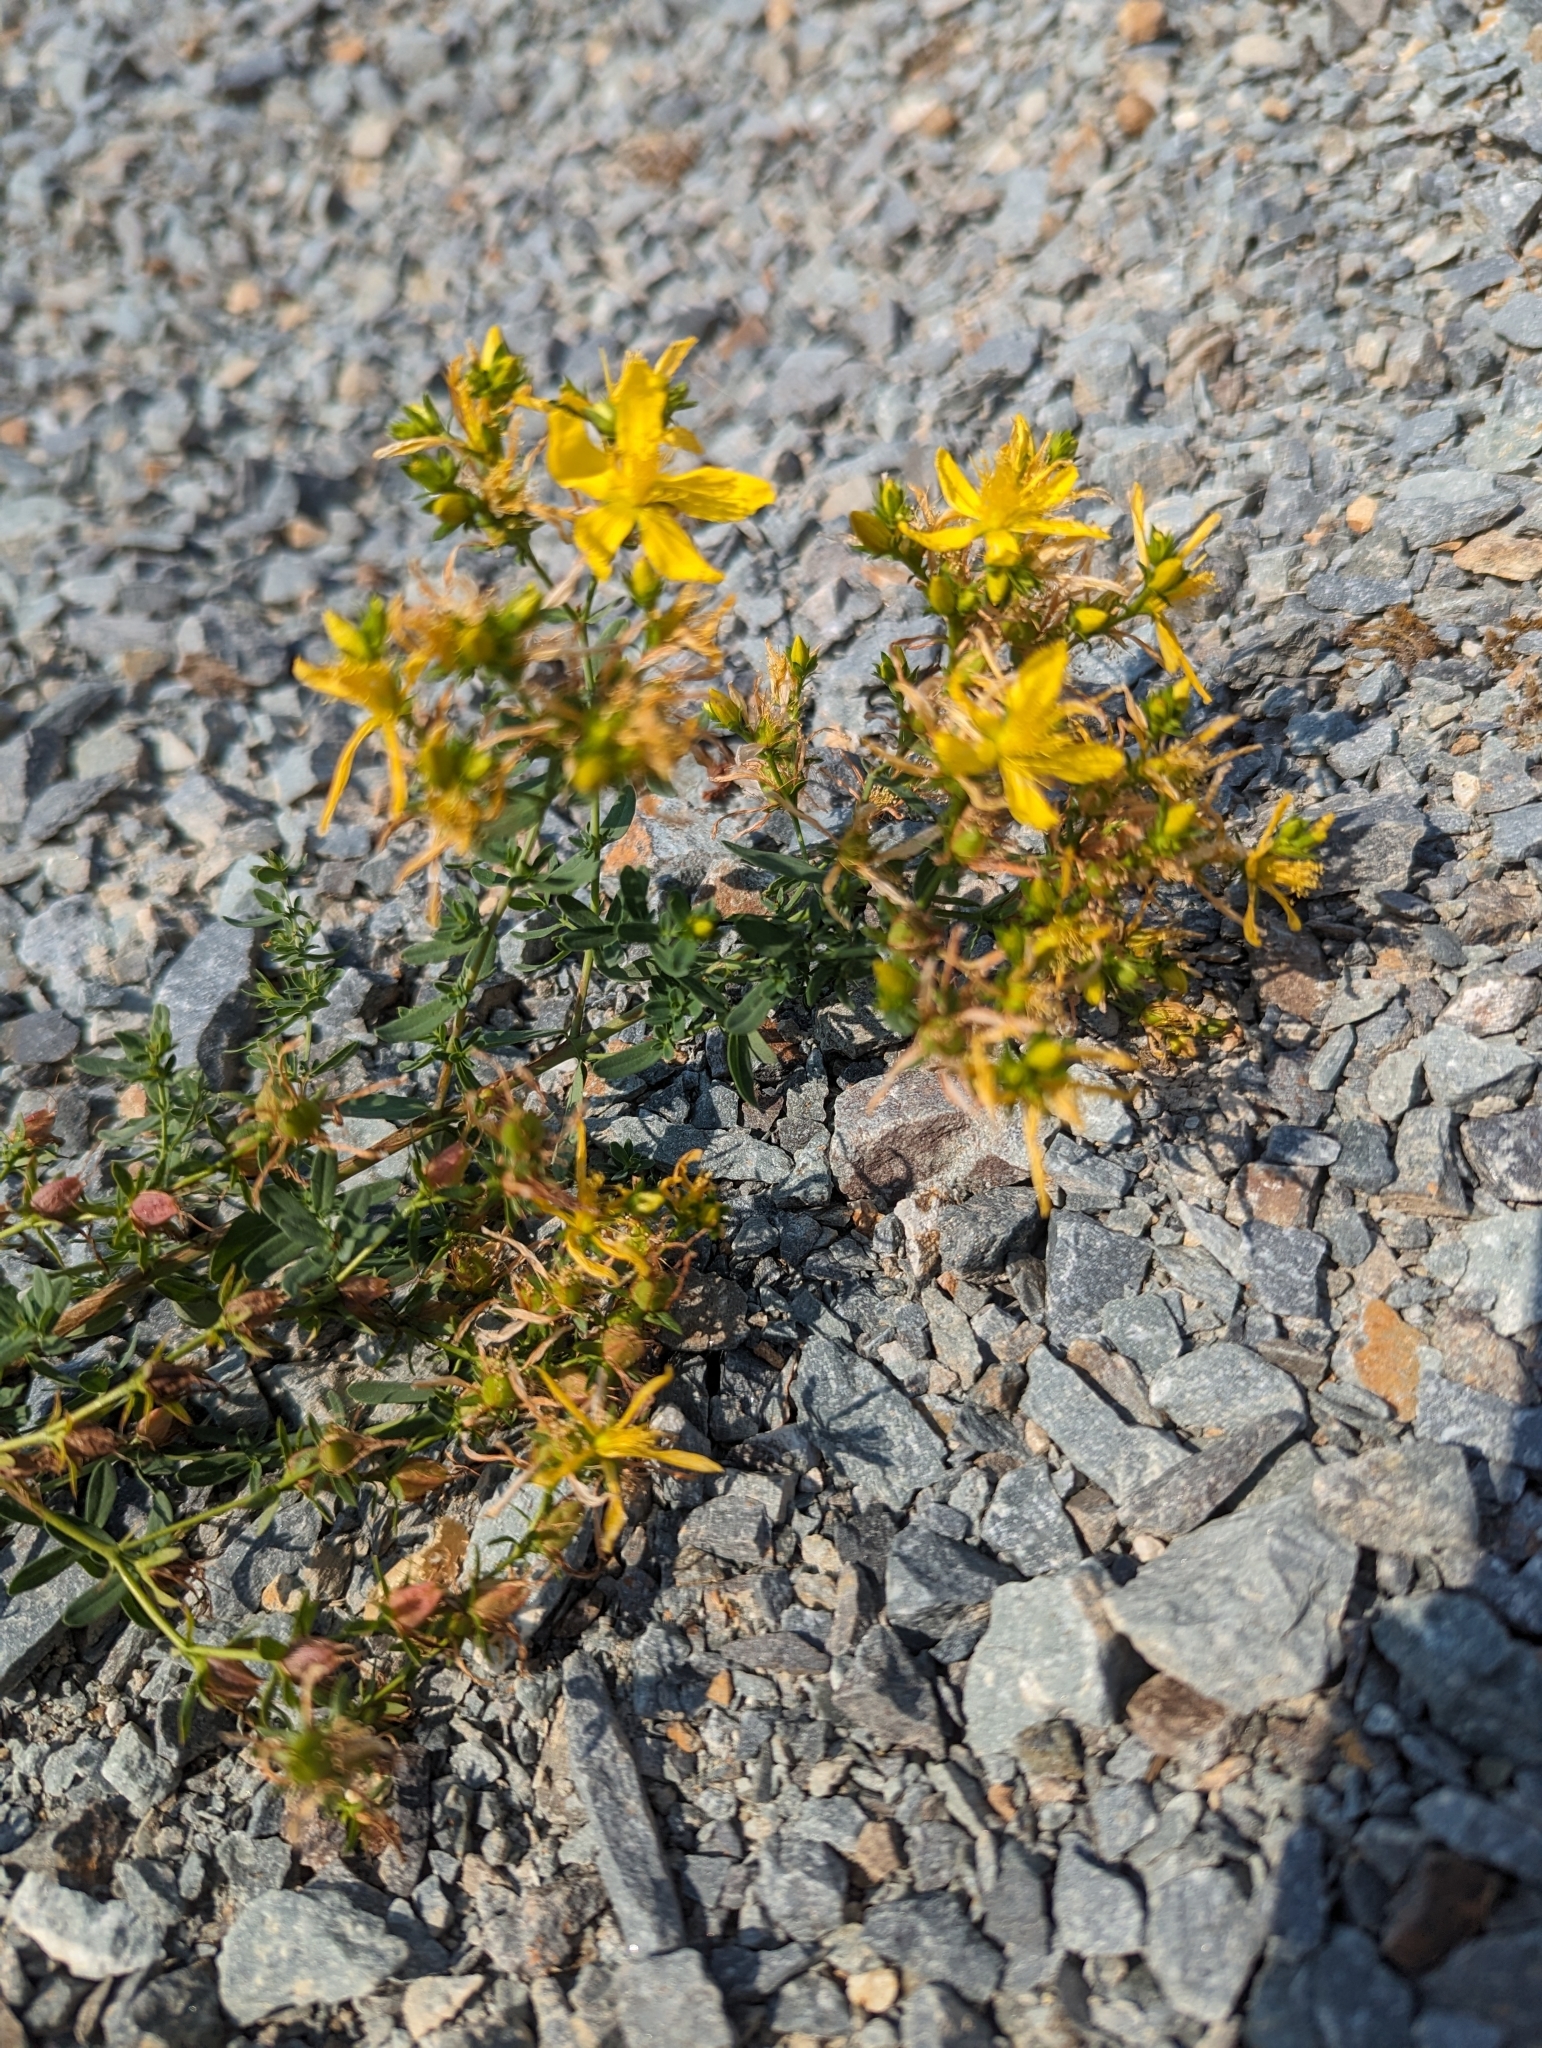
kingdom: Plantae
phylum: Tracheophyta
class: Magnoliopsida
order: Malpighiales
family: Hypericaceae
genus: Hypericum
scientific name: Hypericum perforatum
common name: Common st. johnswort
